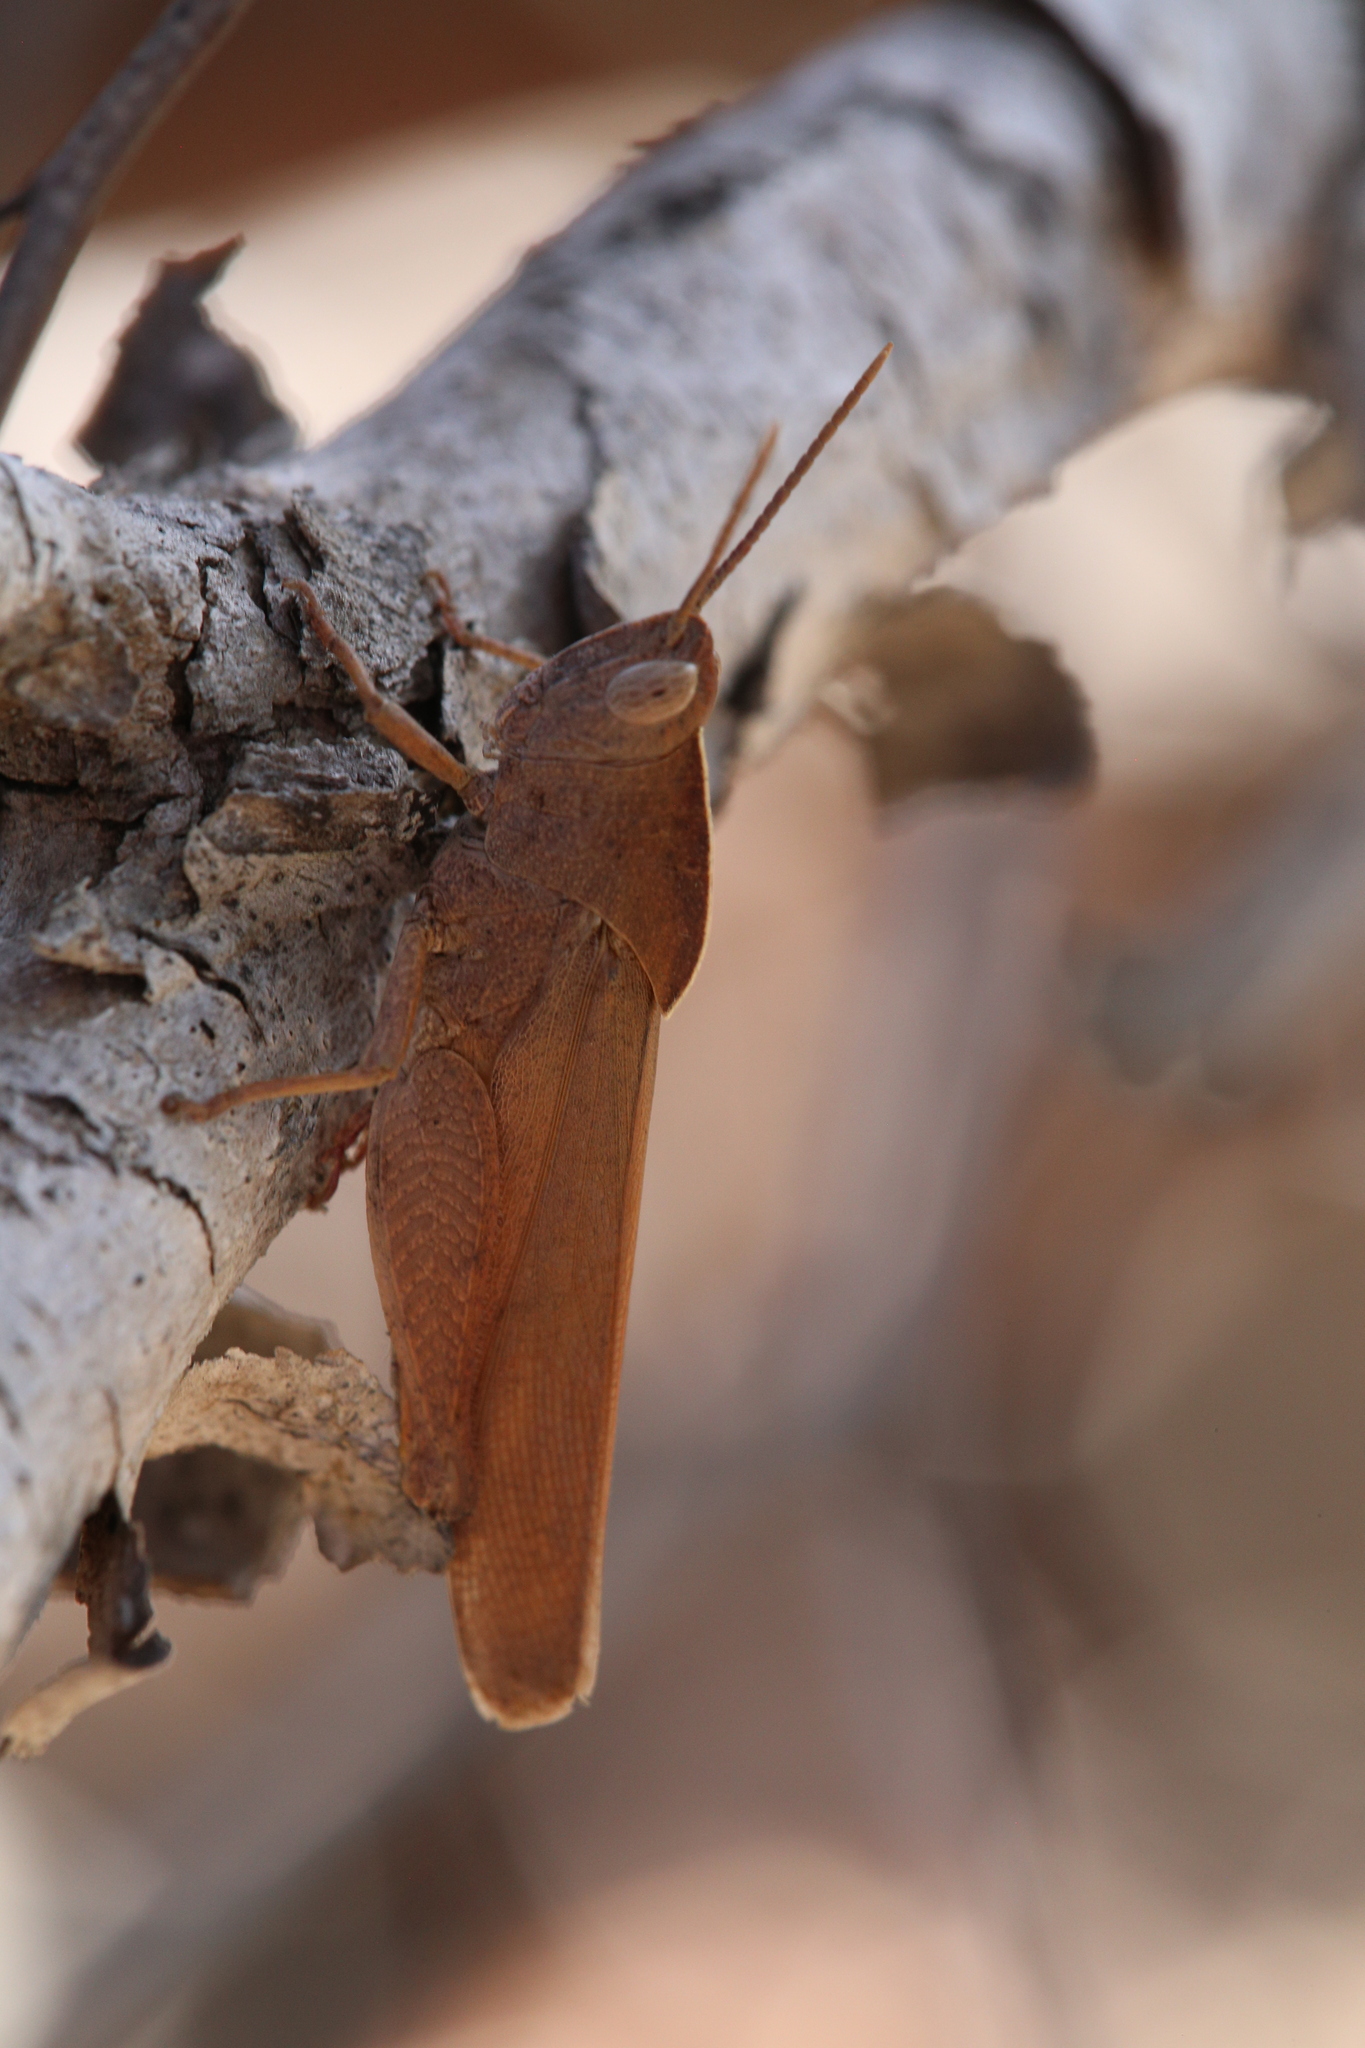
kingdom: Animalia
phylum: Arthropoda
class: Insecta
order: Orthoptera
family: Acrididae
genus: Goniaea
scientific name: Goniaea australasiae
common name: Gumleaf grasshopper
